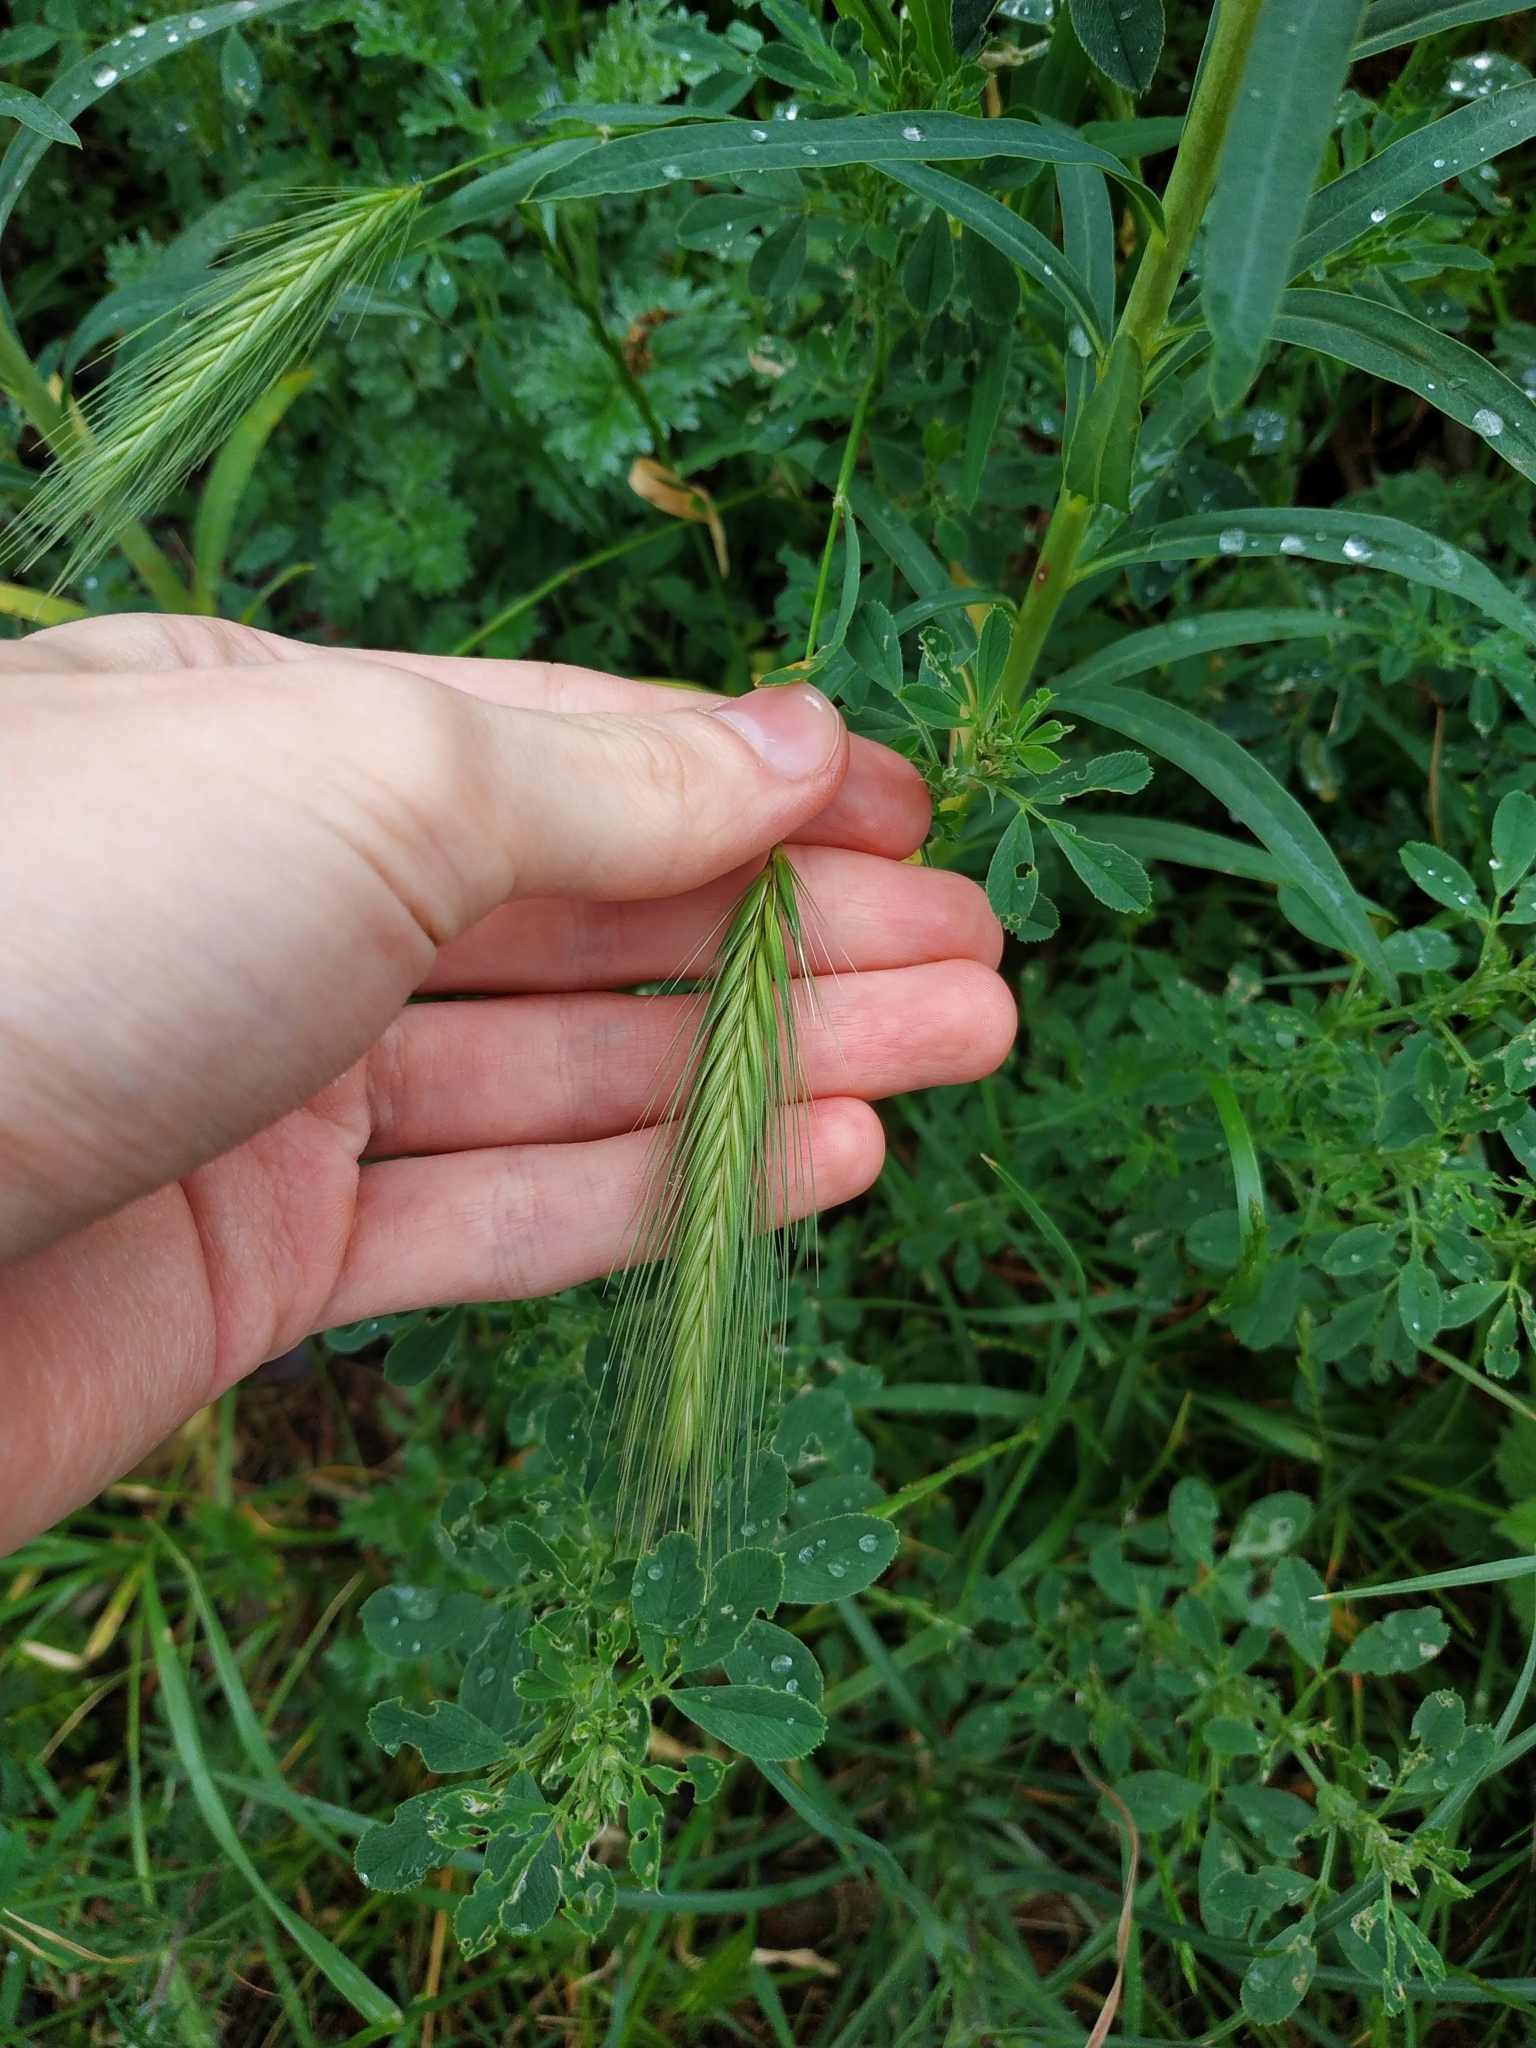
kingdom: Plantae
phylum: Tracheophyta
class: Liliopsida
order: Poales
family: Poaceae
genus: Hordeum
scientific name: Hordeum murinum
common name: Wall barley
